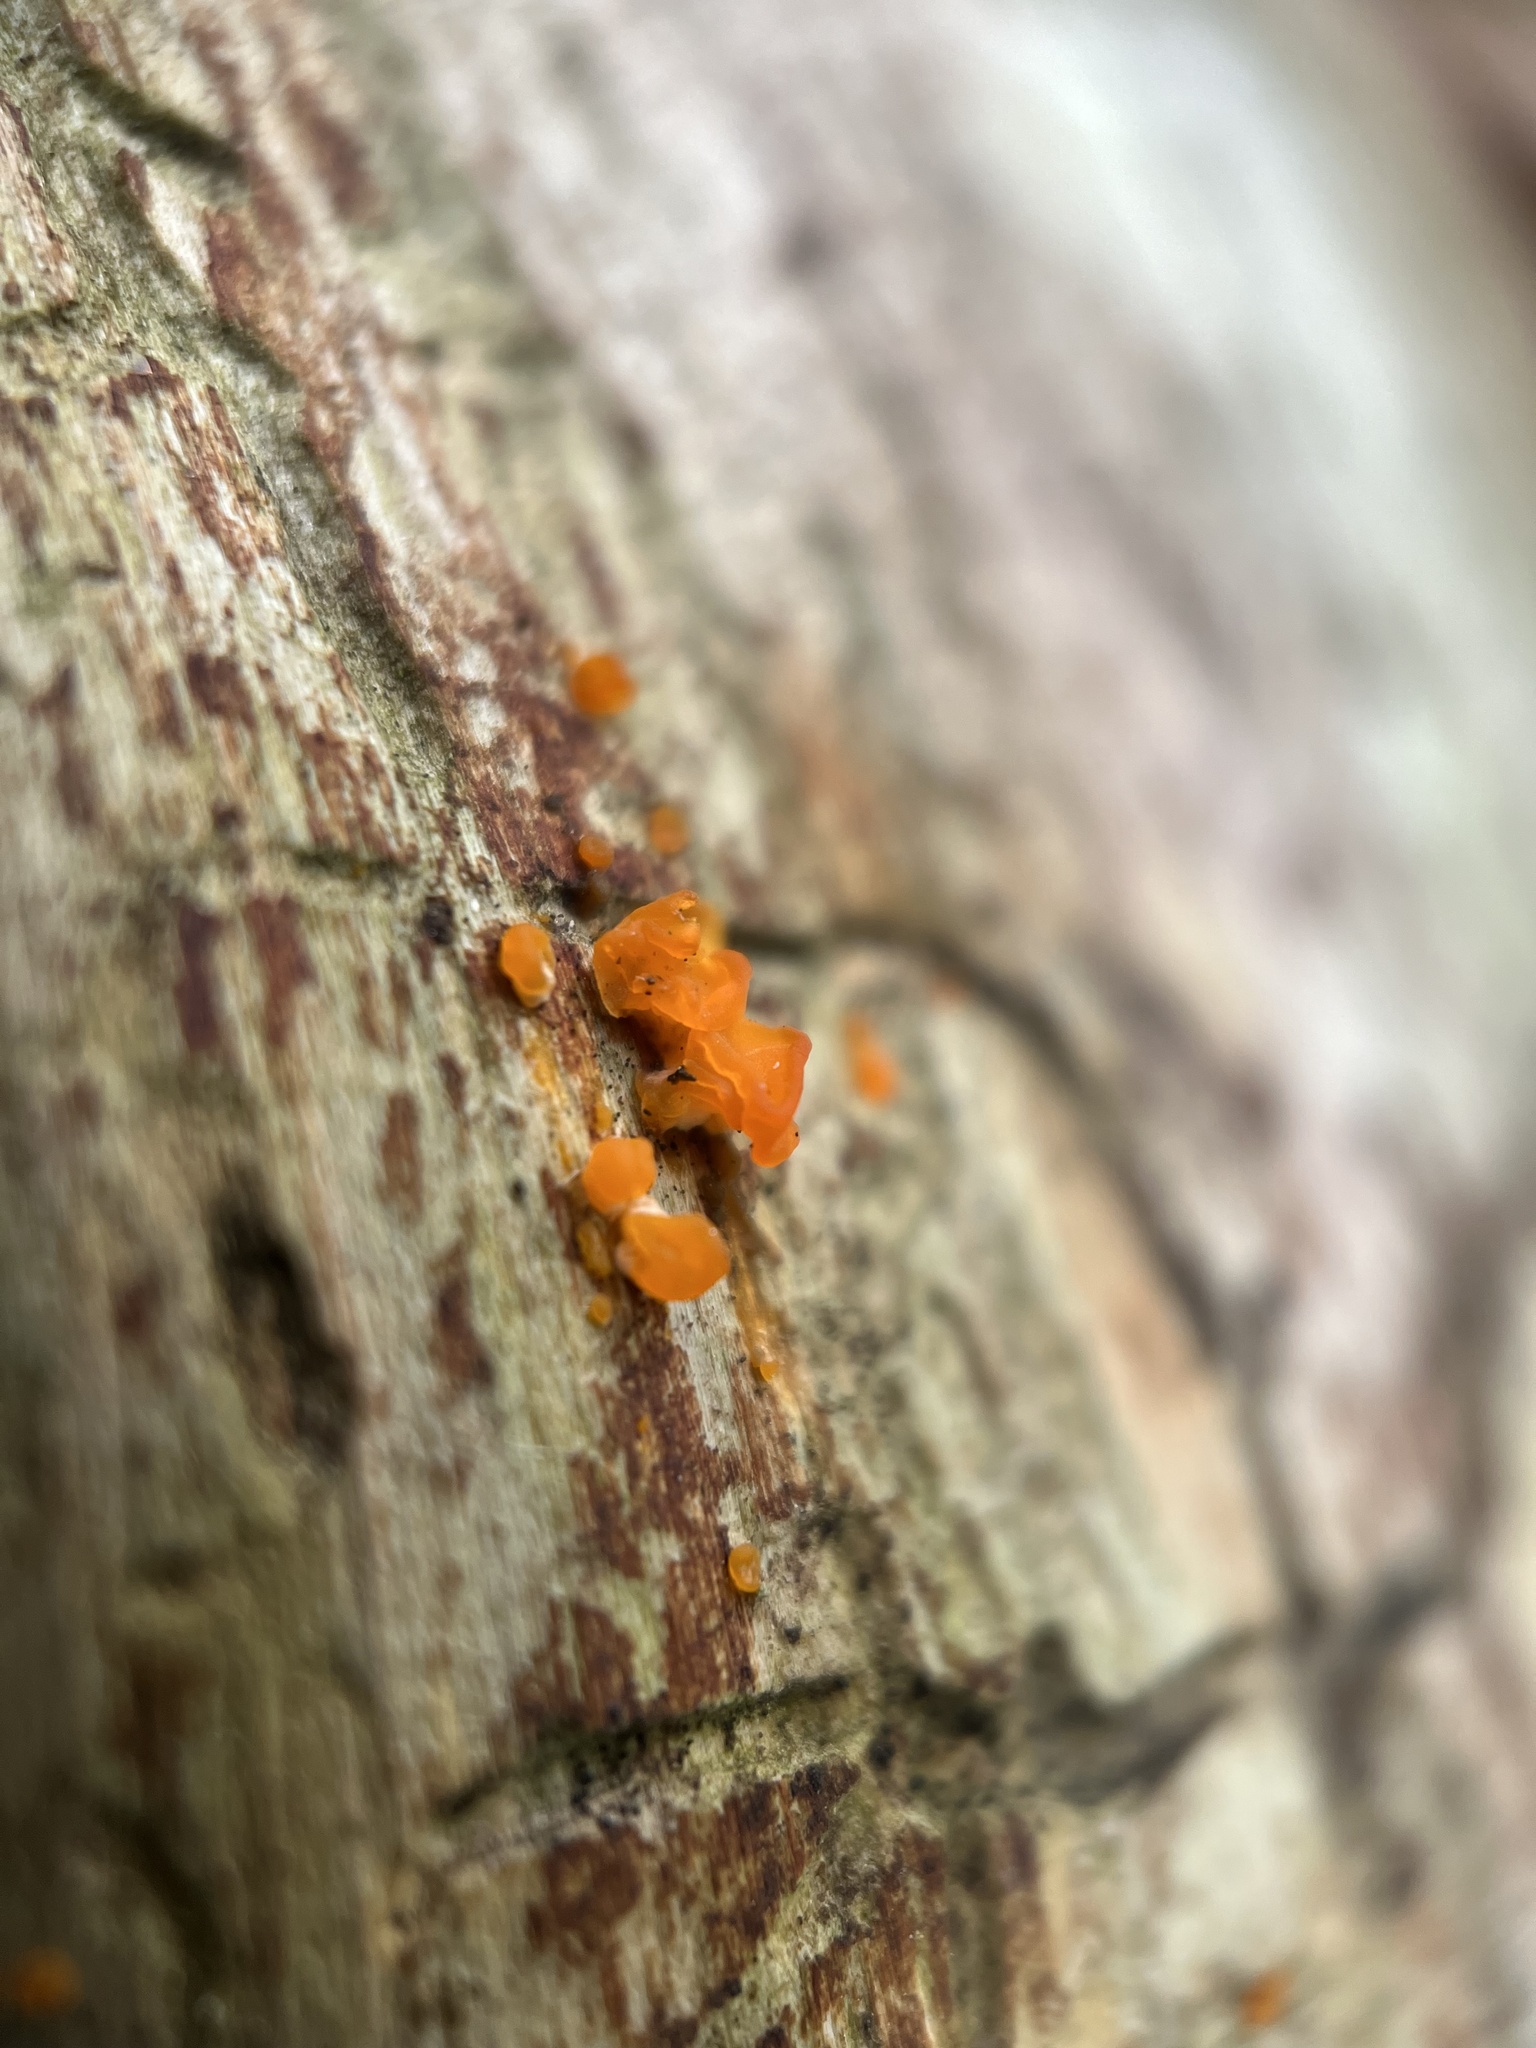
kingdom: Fungi
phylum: Basidiomycota
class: Dacrymycetes
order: Dacrymycetales
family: Dacrymycetaceae
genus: Dacrymyces
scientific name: Dacrymyces stillatus
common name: Common jelly spot
